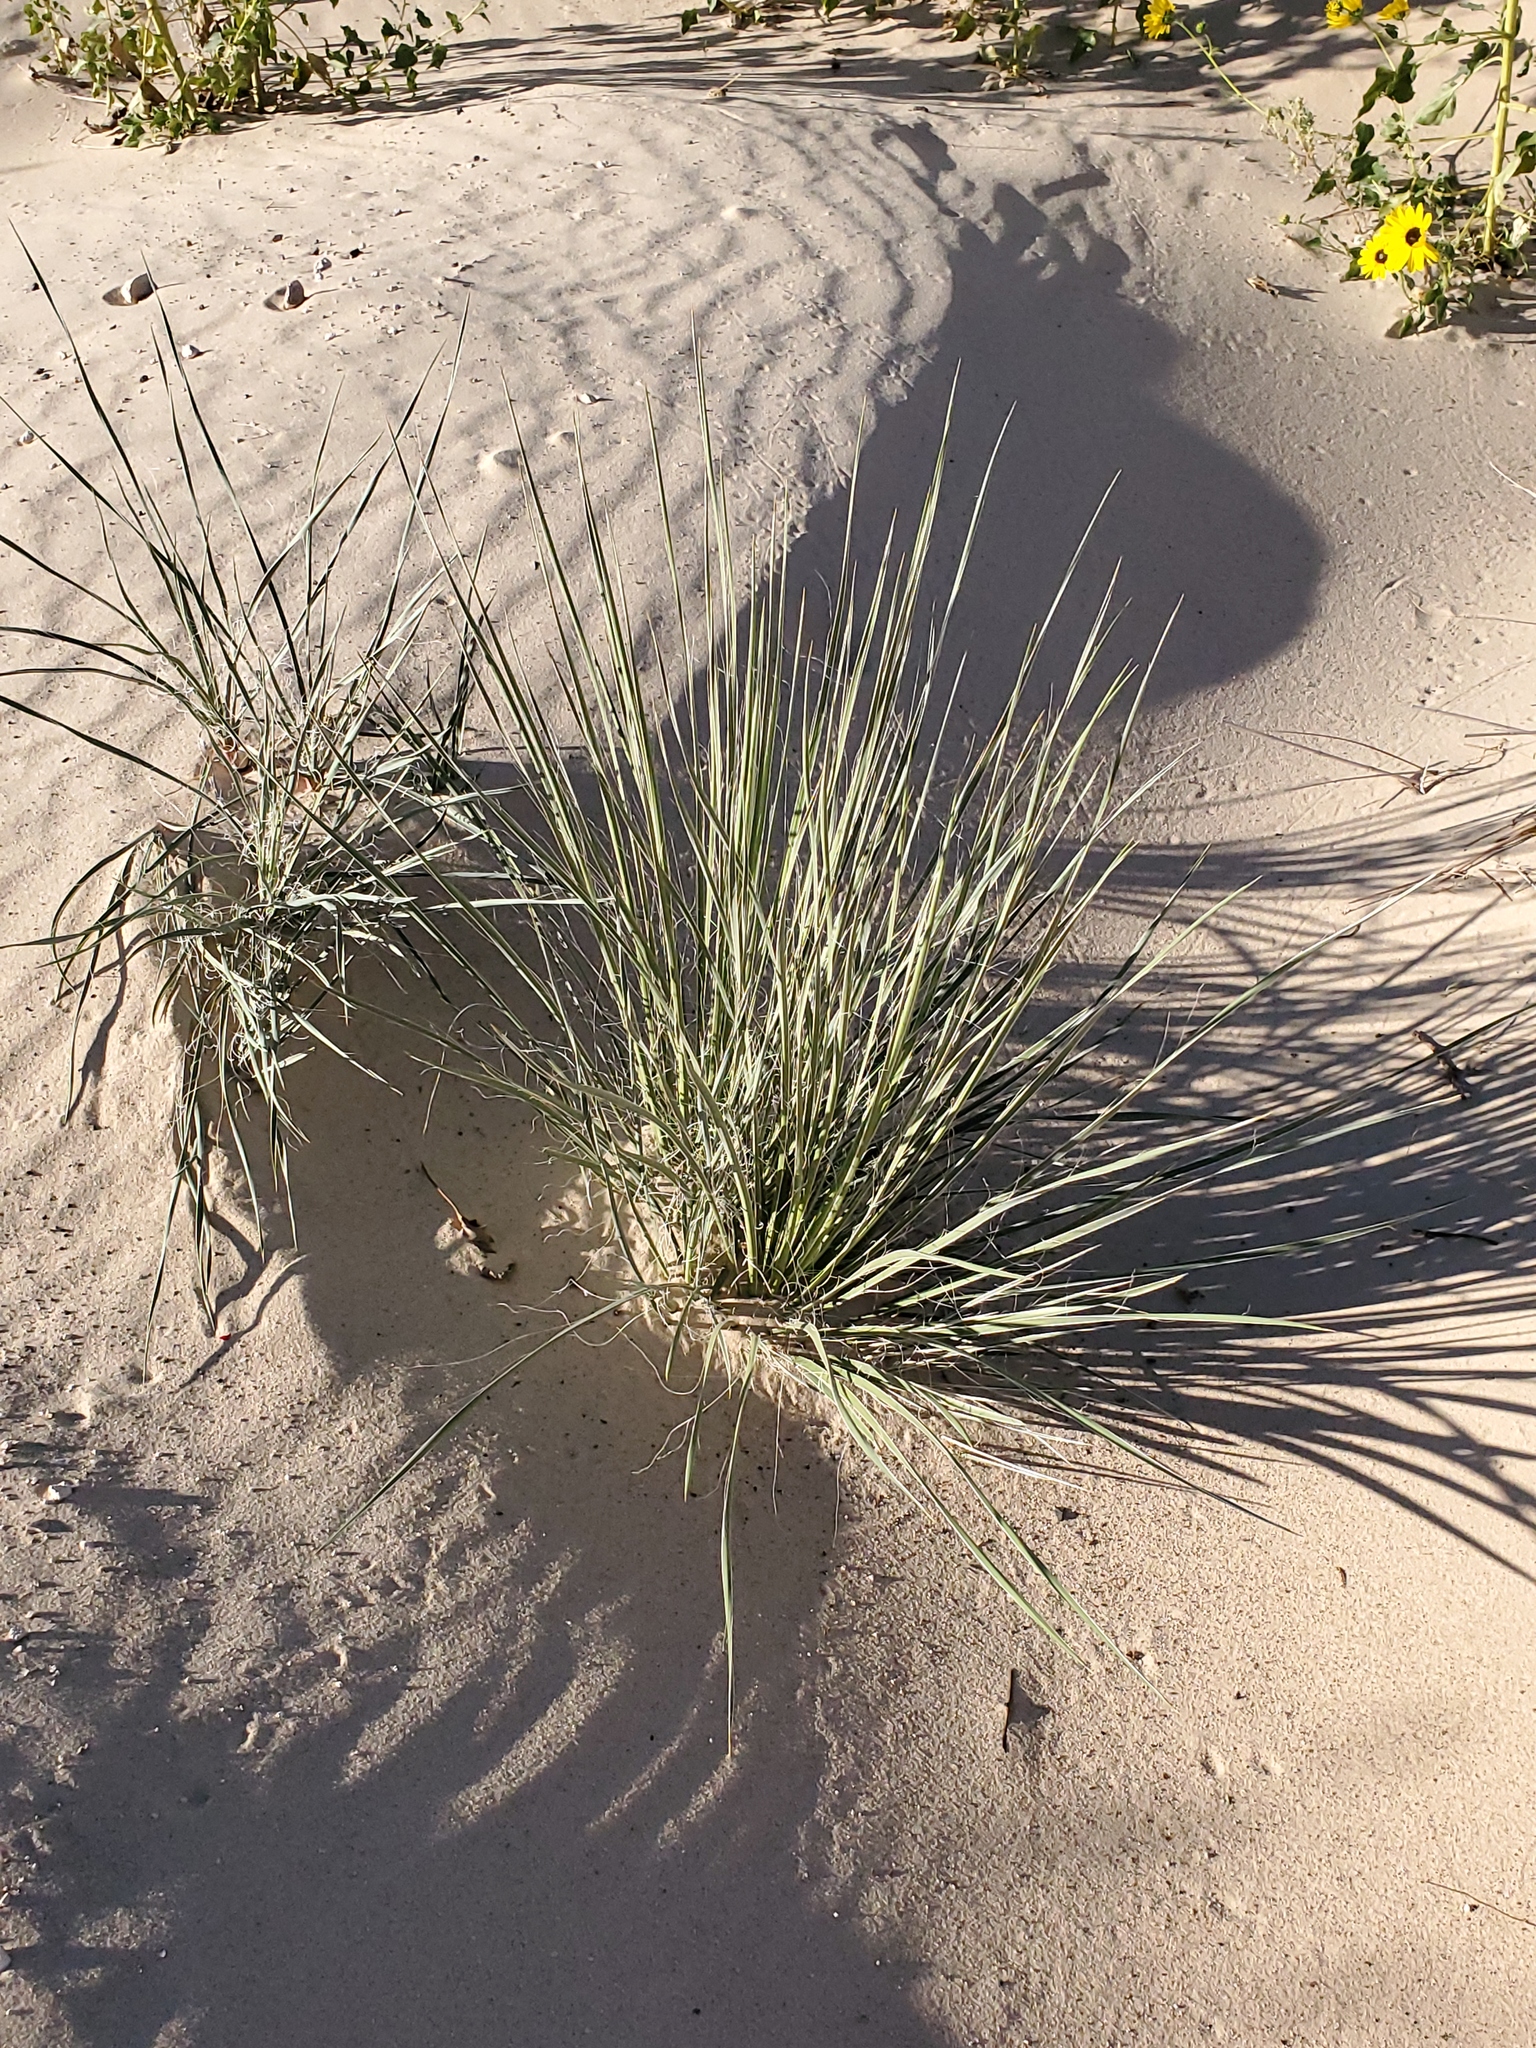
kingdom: Plantae
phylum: Tracheophyta
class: Liliopsida
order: Asparagales
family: Asparagaceae
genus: Yucca
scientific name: Yucca campestris
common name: Plains yucca
